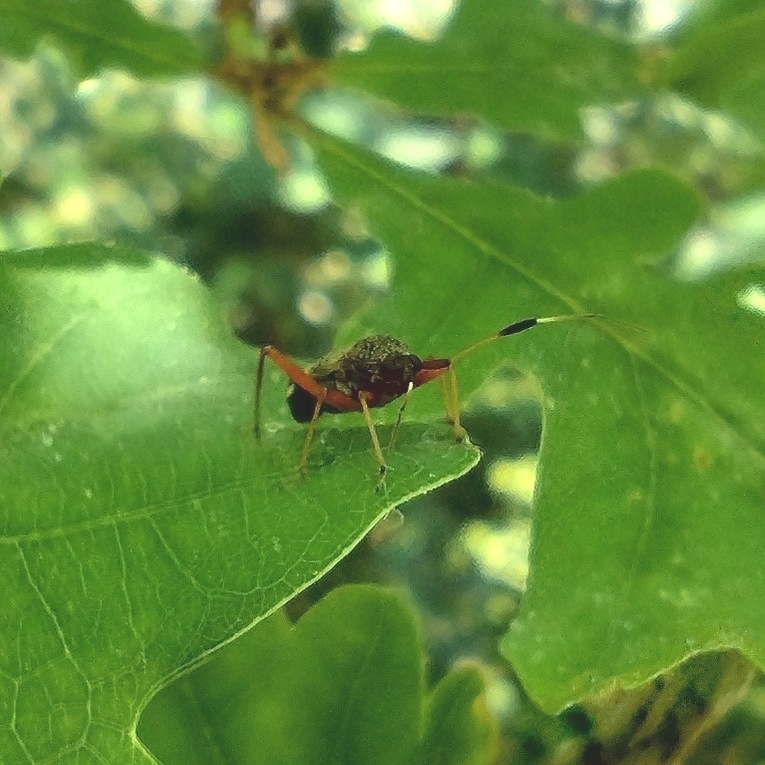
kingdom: Animalia
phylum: Arthropoda
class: Insecta
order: Hemiptera
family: Miridae
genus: Closterotomus
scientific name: Closterotomus biclavatus
